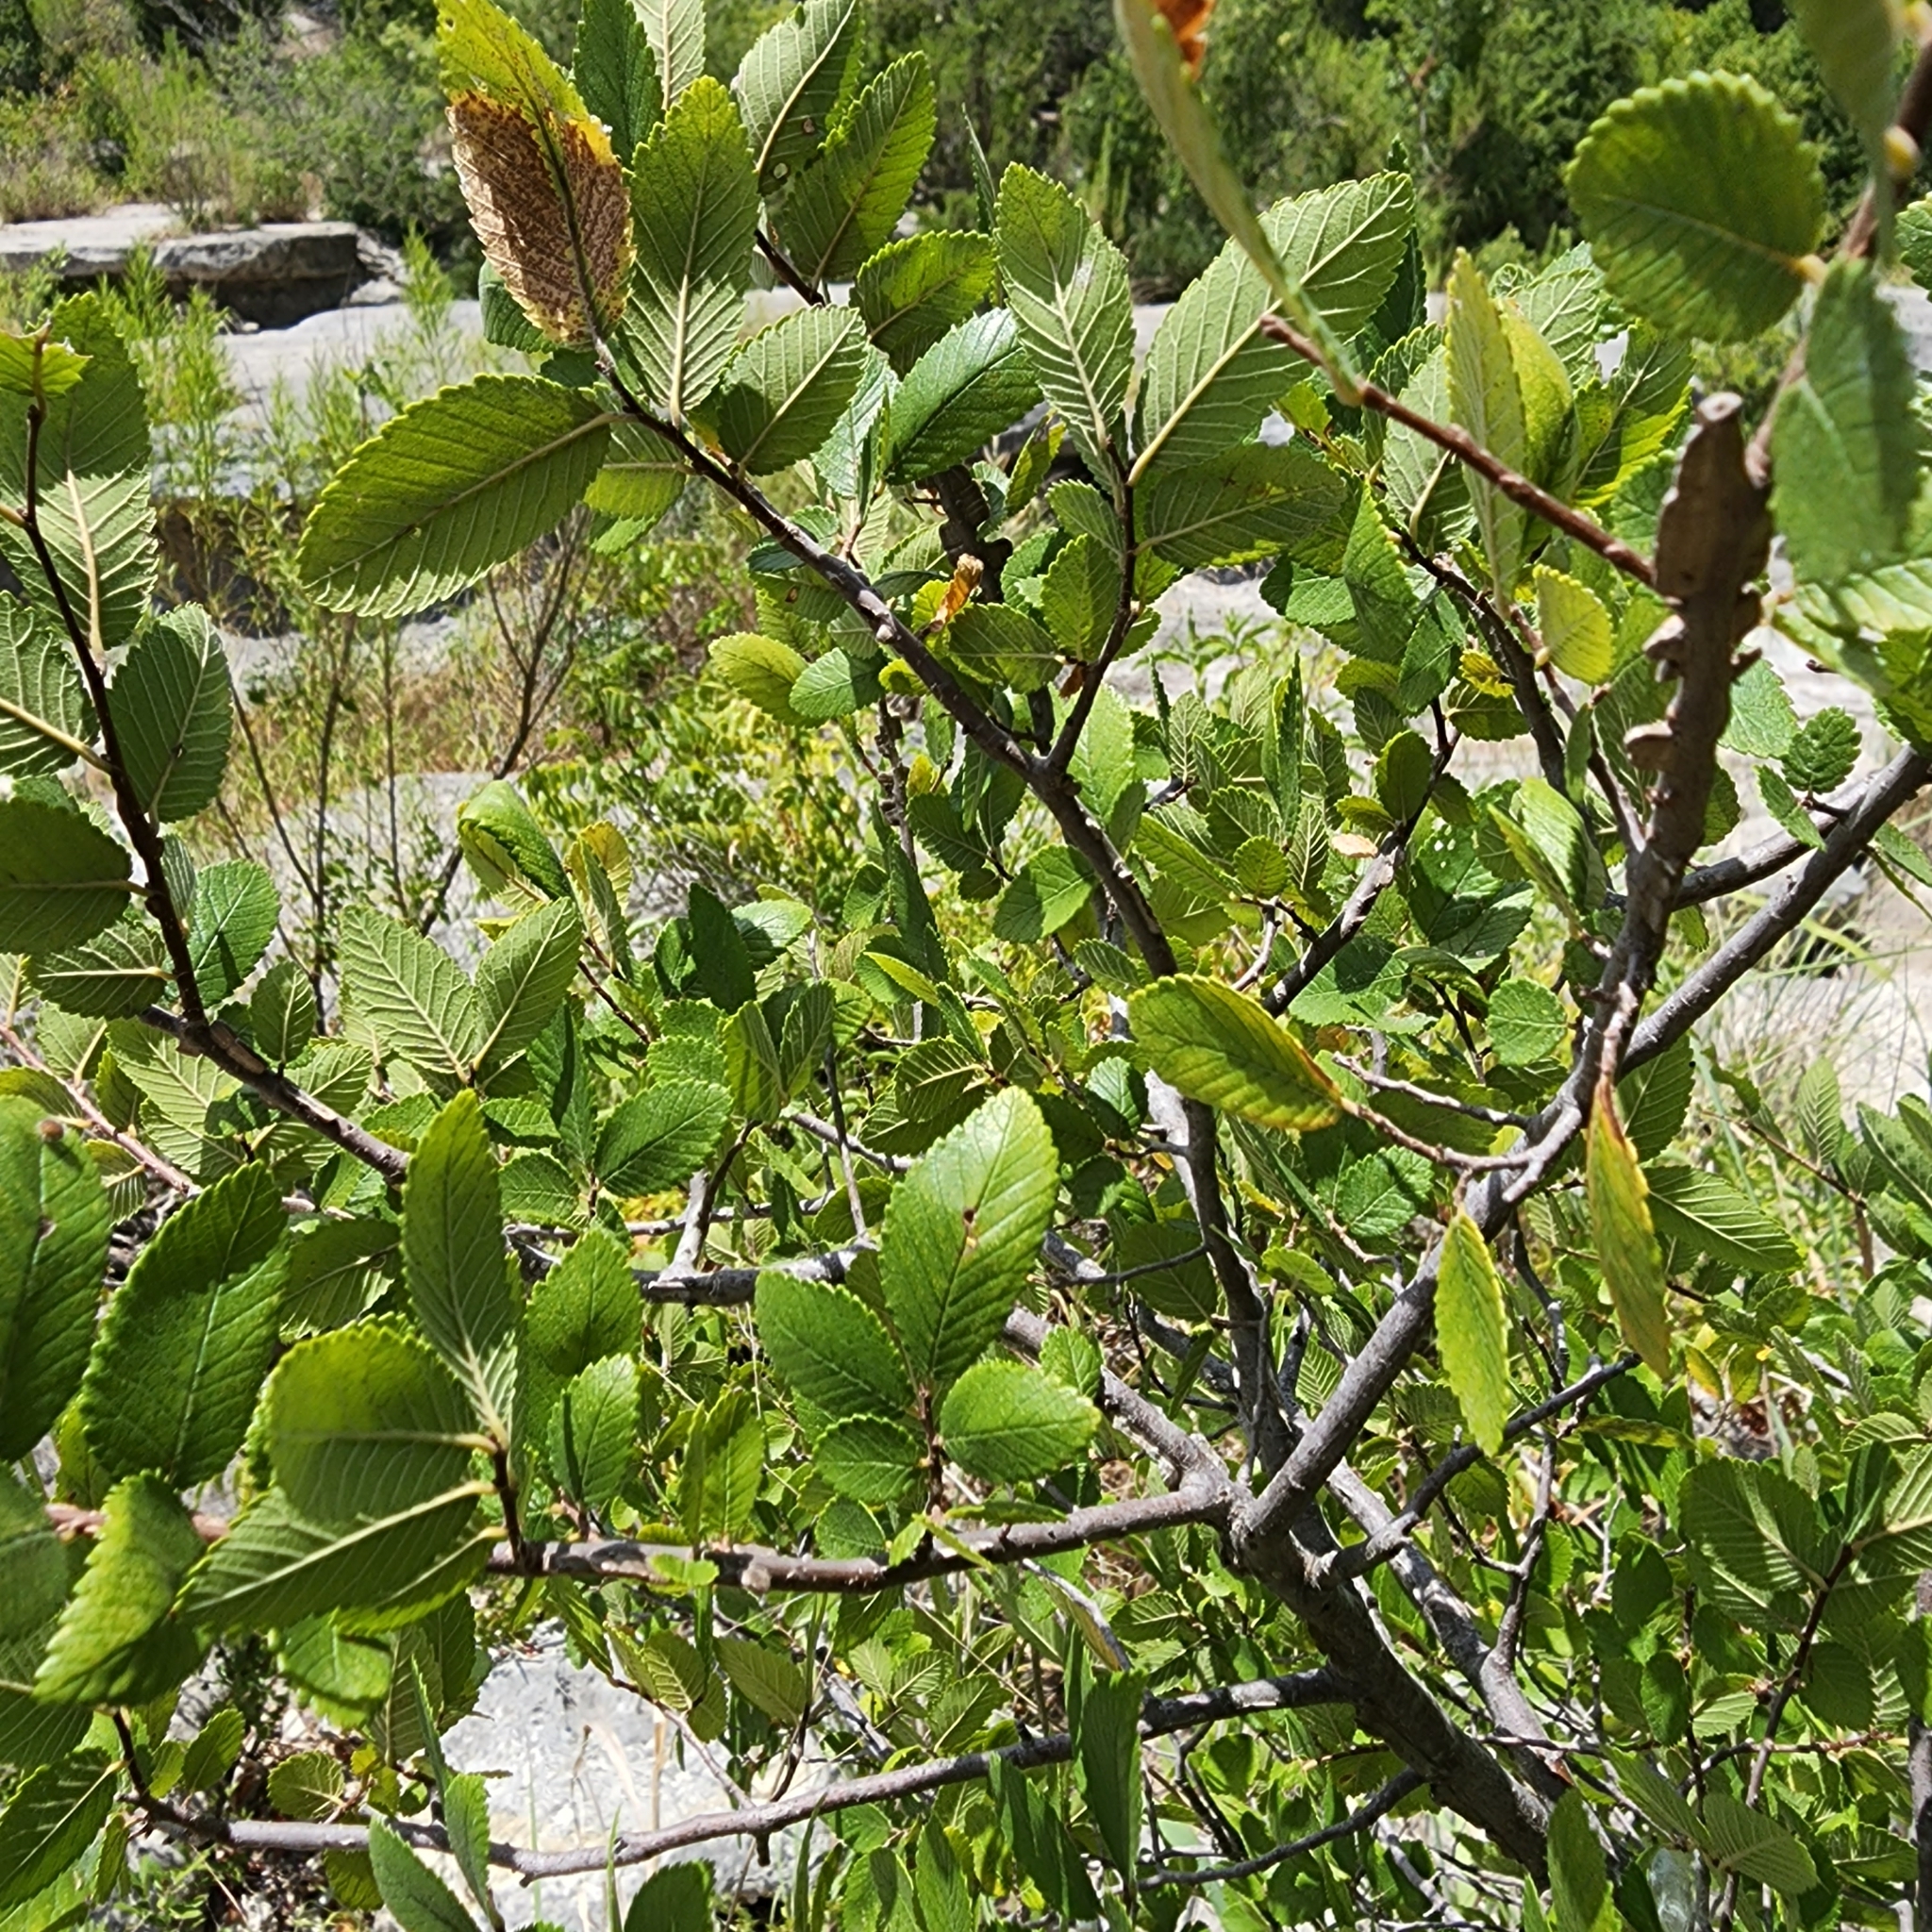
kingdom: Plantae
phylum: Tracheophyta
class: Magnoliopsida
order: Rosales
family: Ulmaceae
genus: Ulmus
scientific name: Ulmus crassifolia
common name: Basket elm
